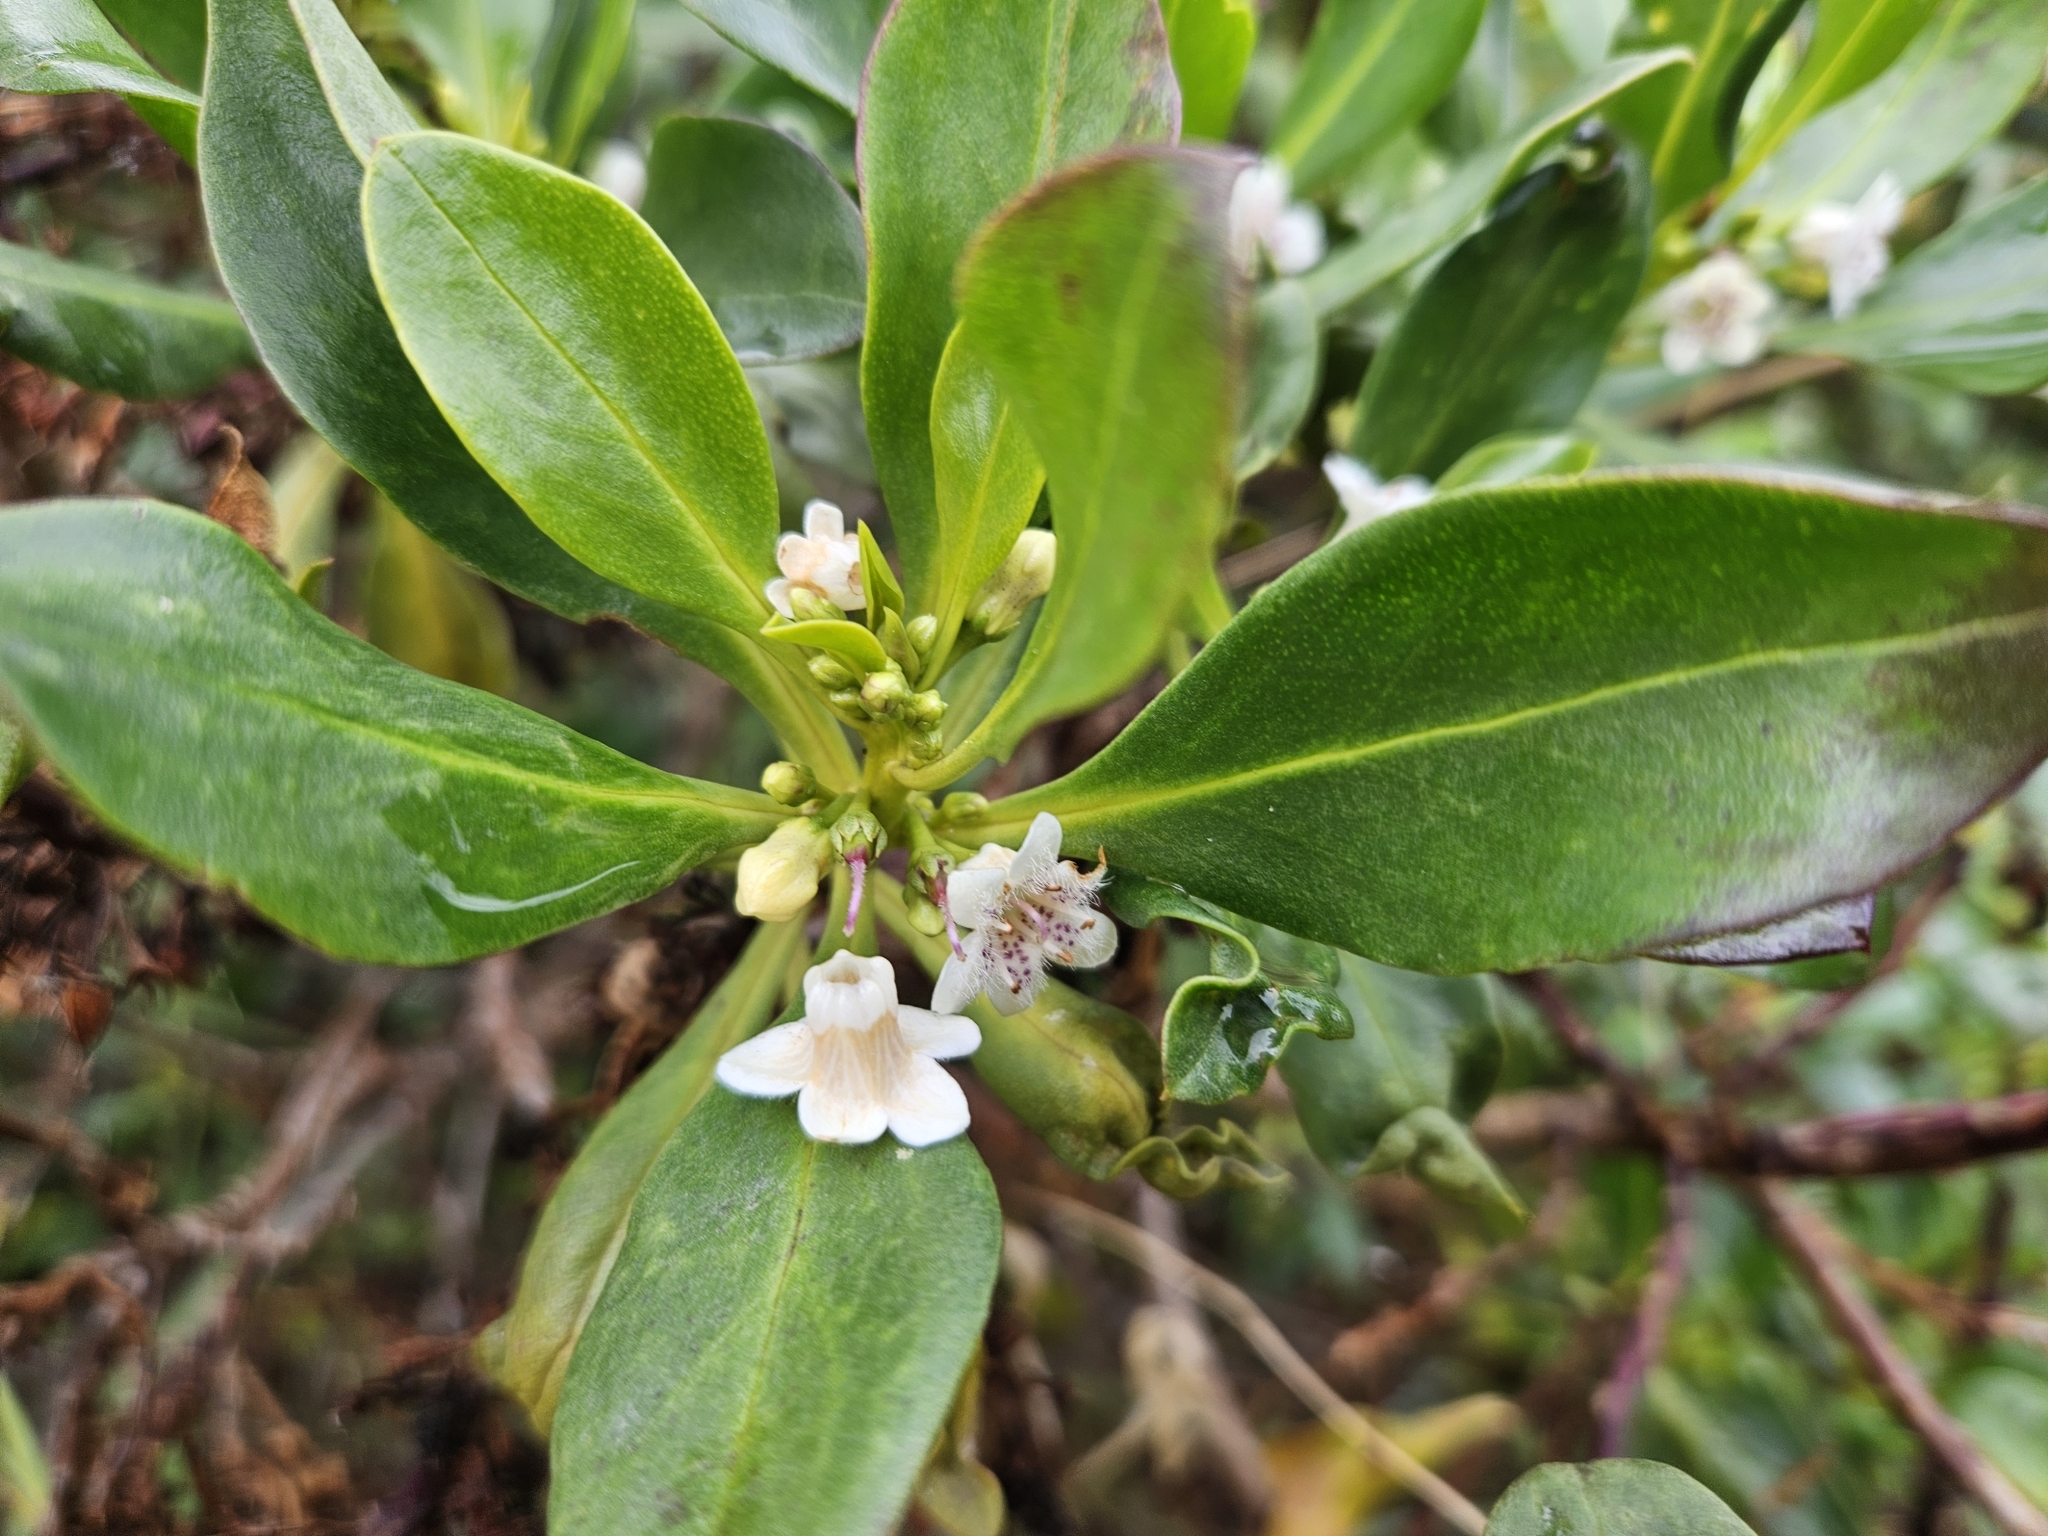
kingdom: Plantae
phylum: Tracheophyta
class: Magnoliopsida
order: Lamiales
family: Scrophulariaceae
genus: Myoporum
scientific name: Myoporum laetum
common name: Ngaio tree
